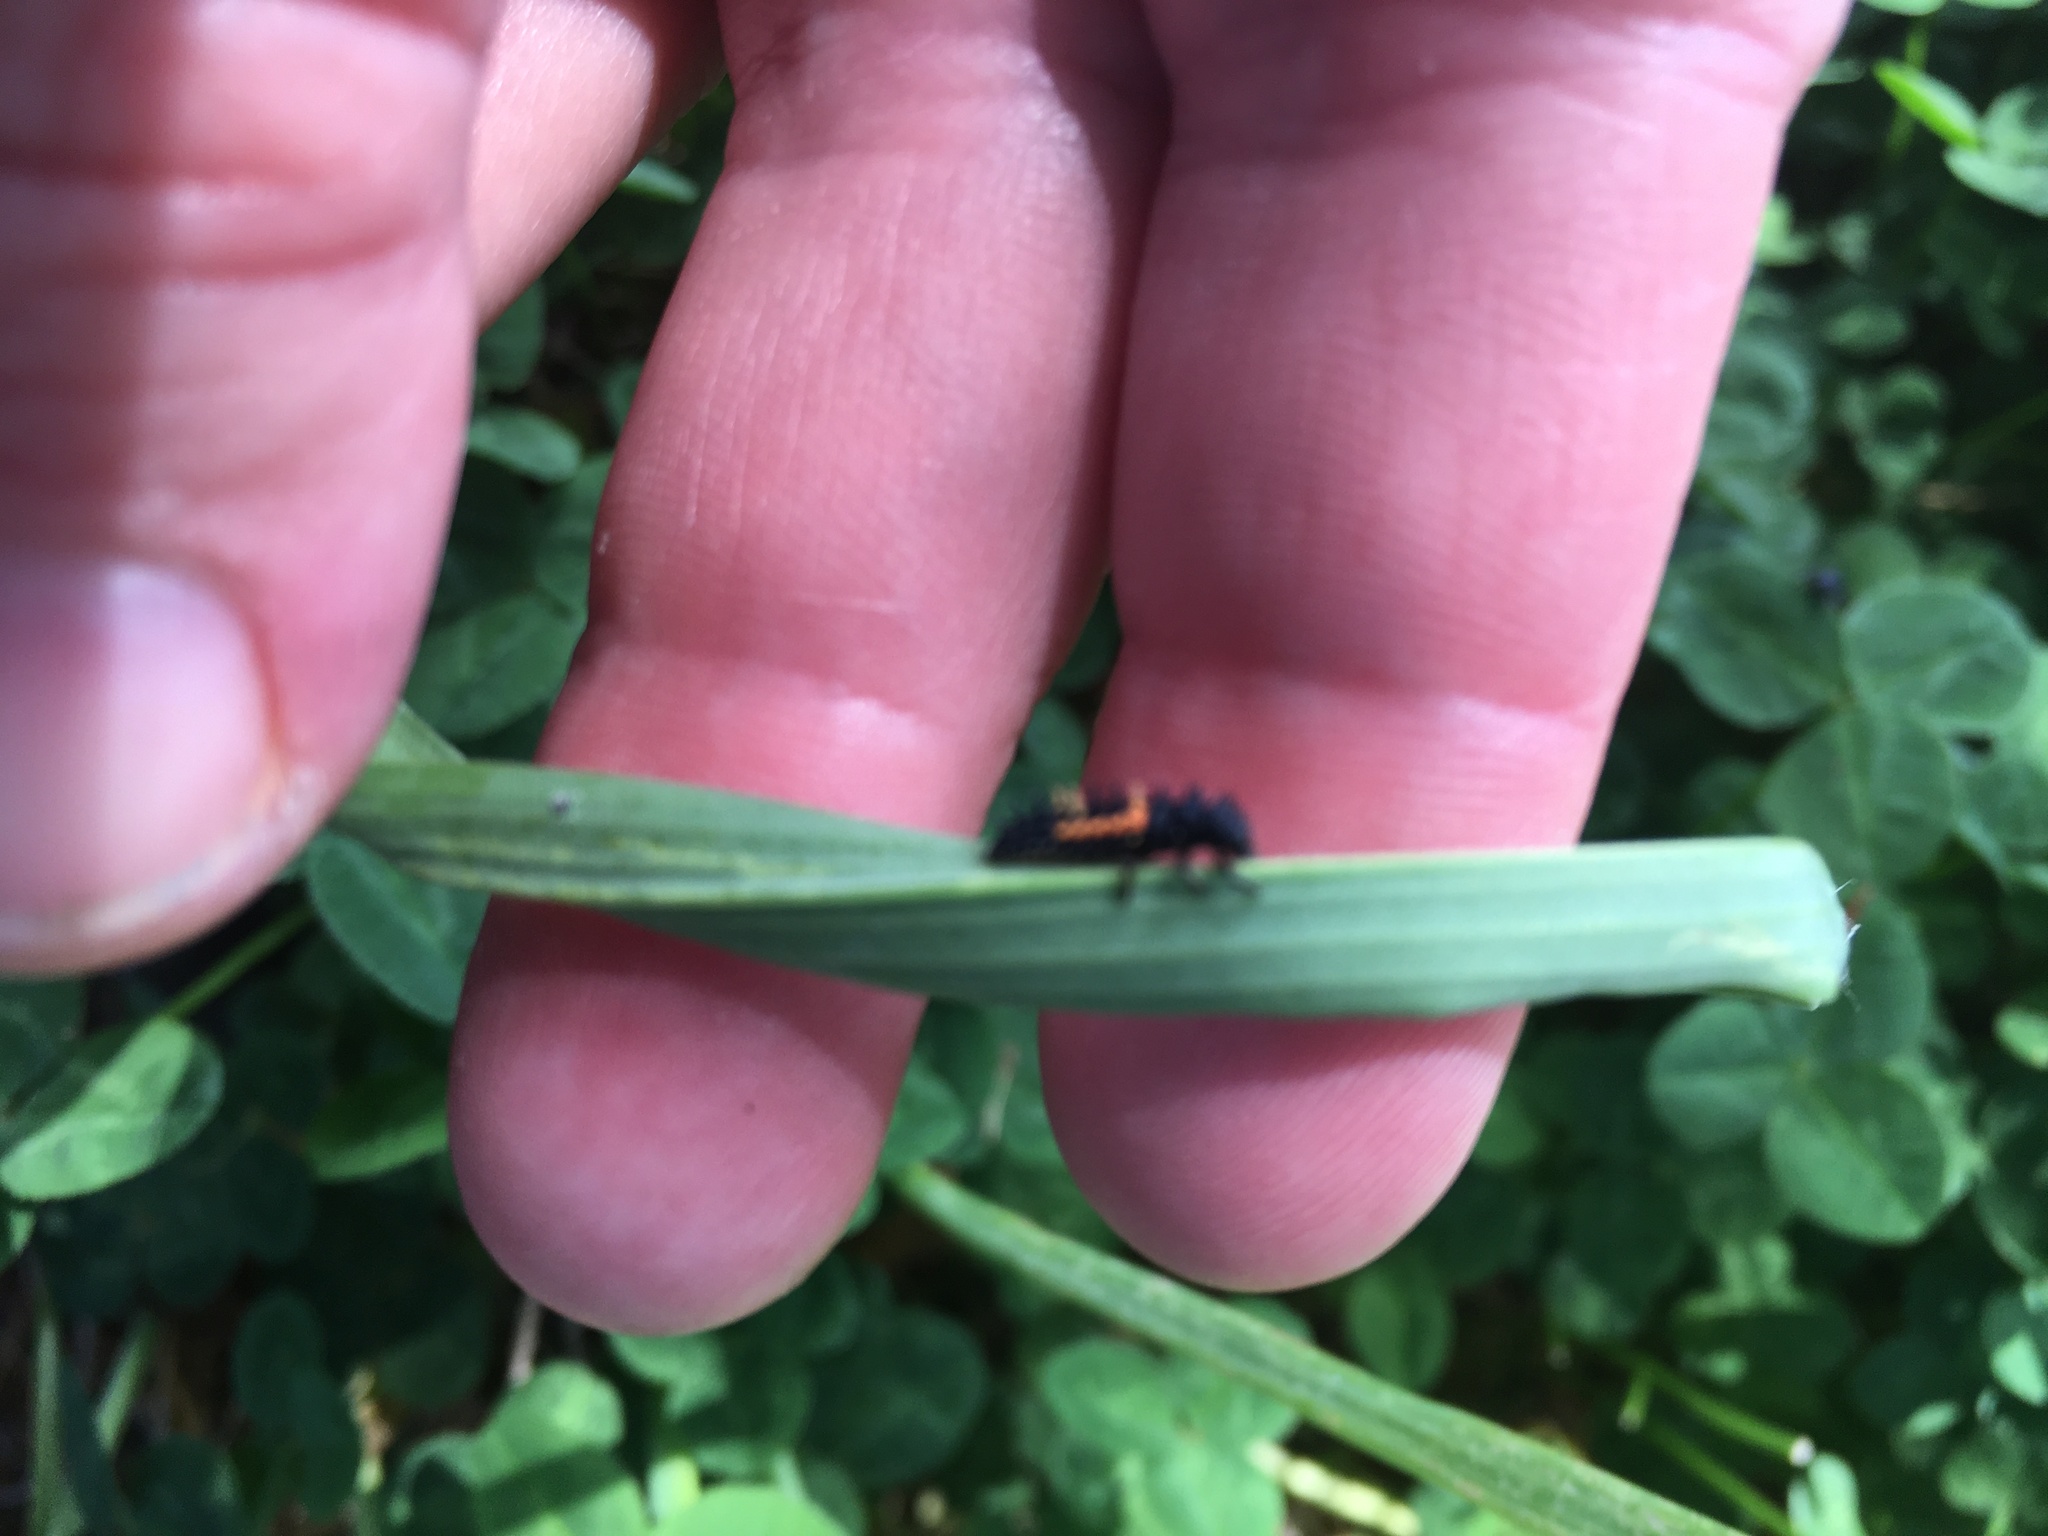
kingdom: Animalia
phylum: Arthropoda
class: Insecta
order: Coleoptera
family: Coccinellidae
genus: Harmonia
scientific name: Harmonia axyridis
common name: Harlequin ladybird
